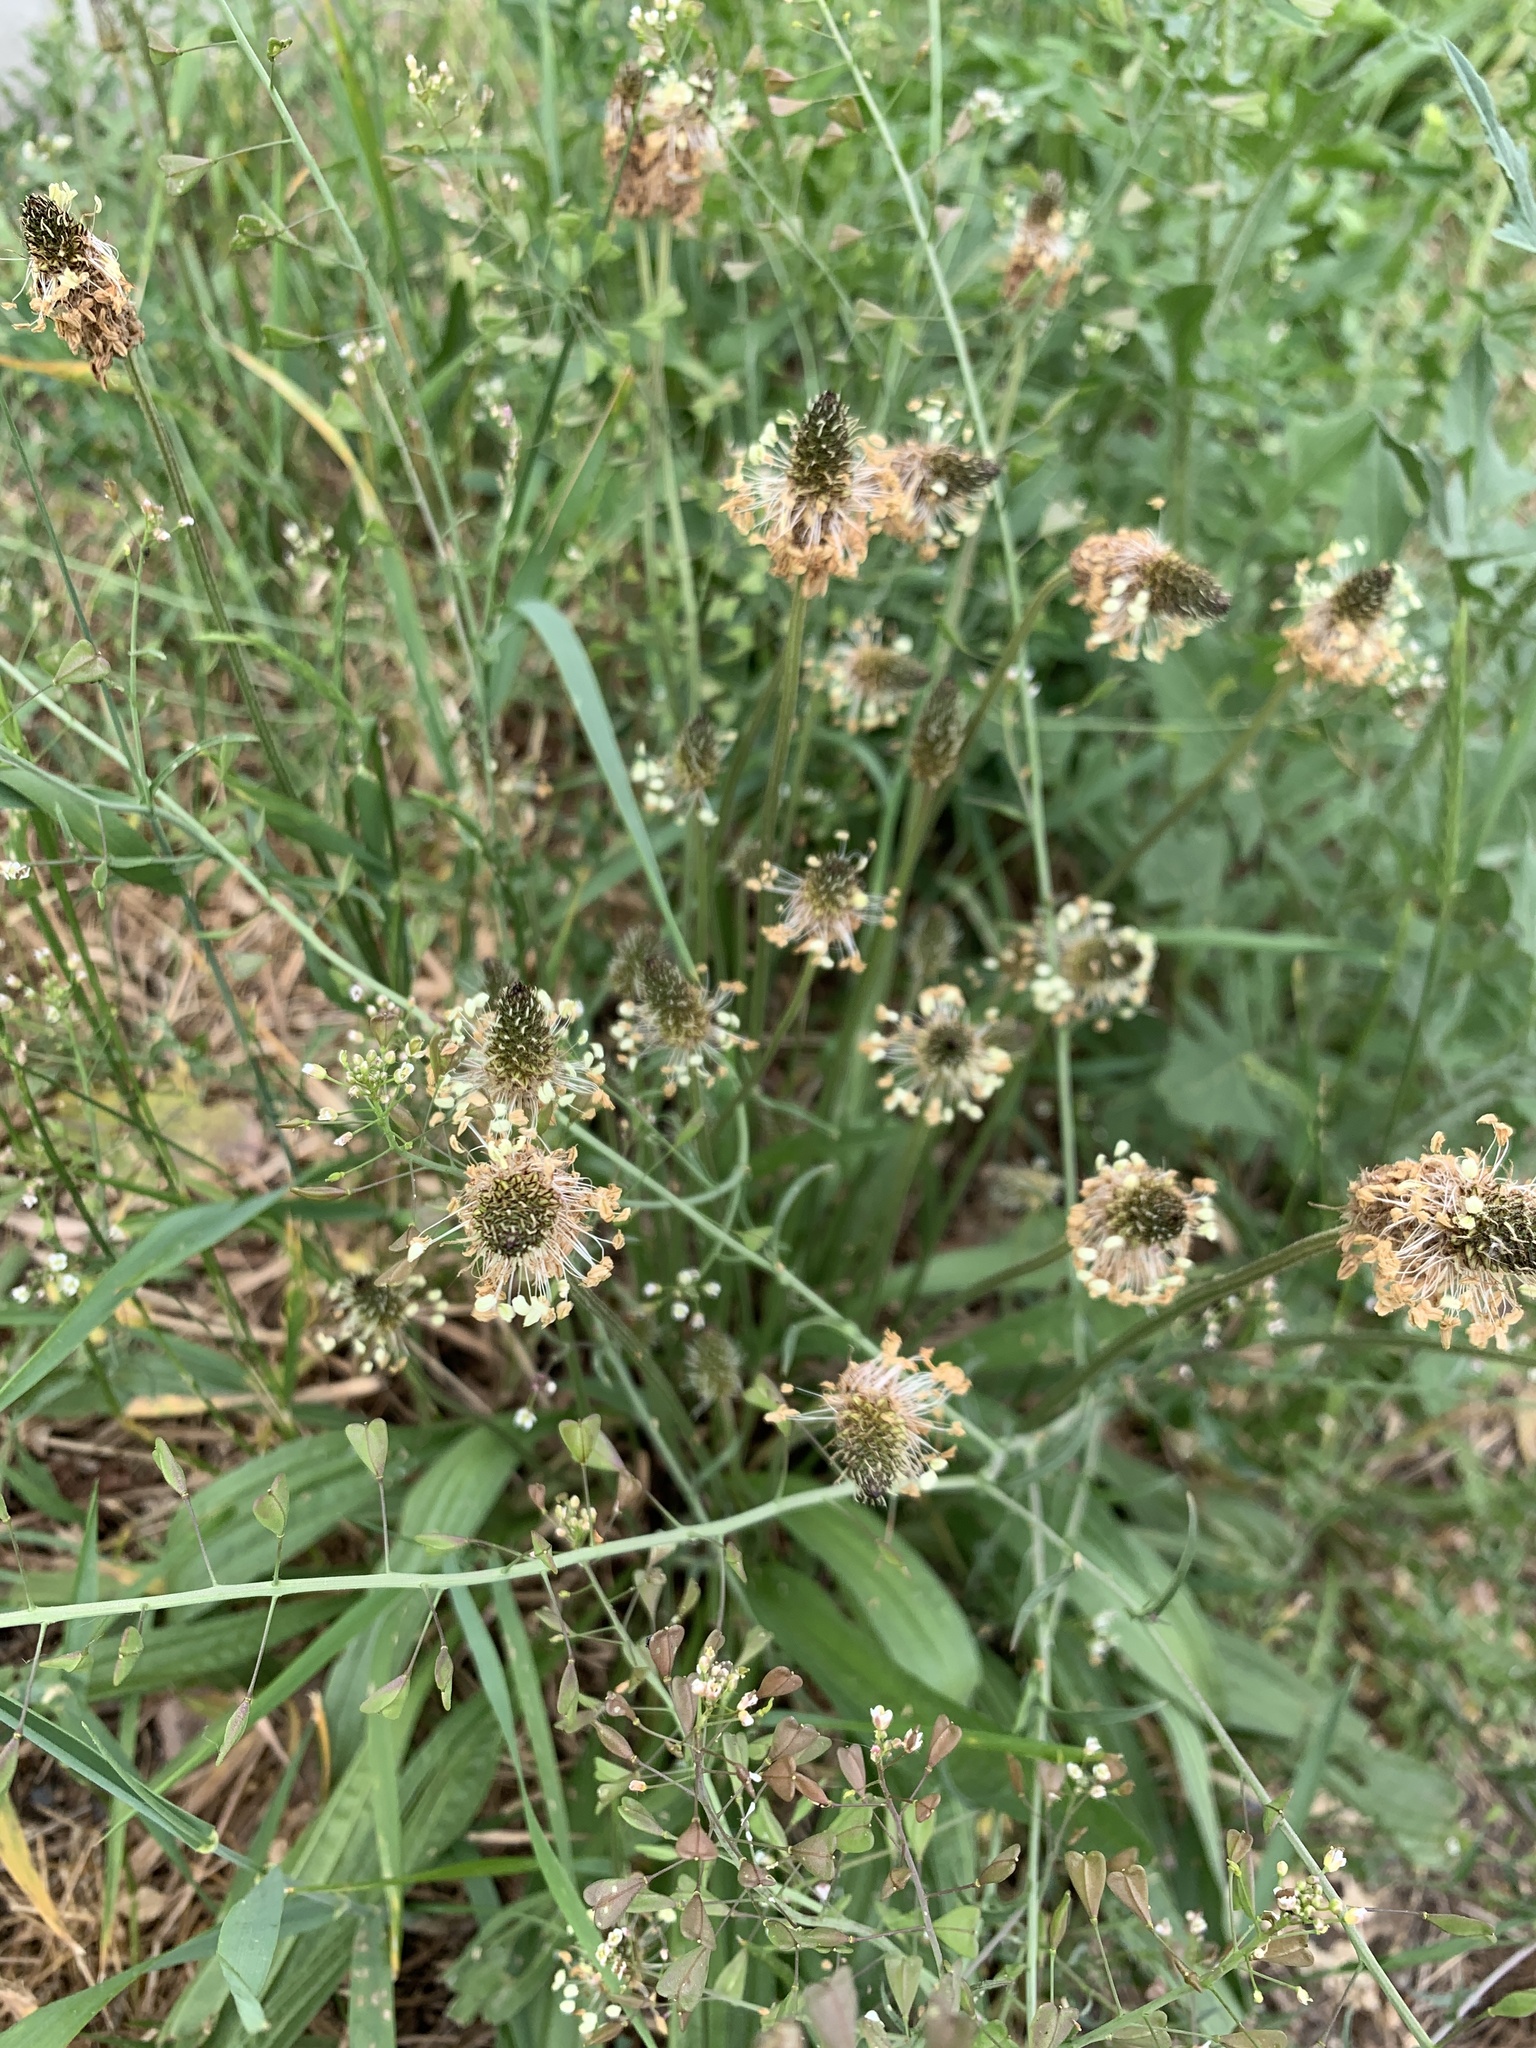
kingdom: Plantae
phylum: Tracheophyta
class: Magnoliopsida
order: Lamiales
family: Plantaginaceae
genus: Plantago
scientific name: Plantago lanceolata
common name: Ribwort plantain
